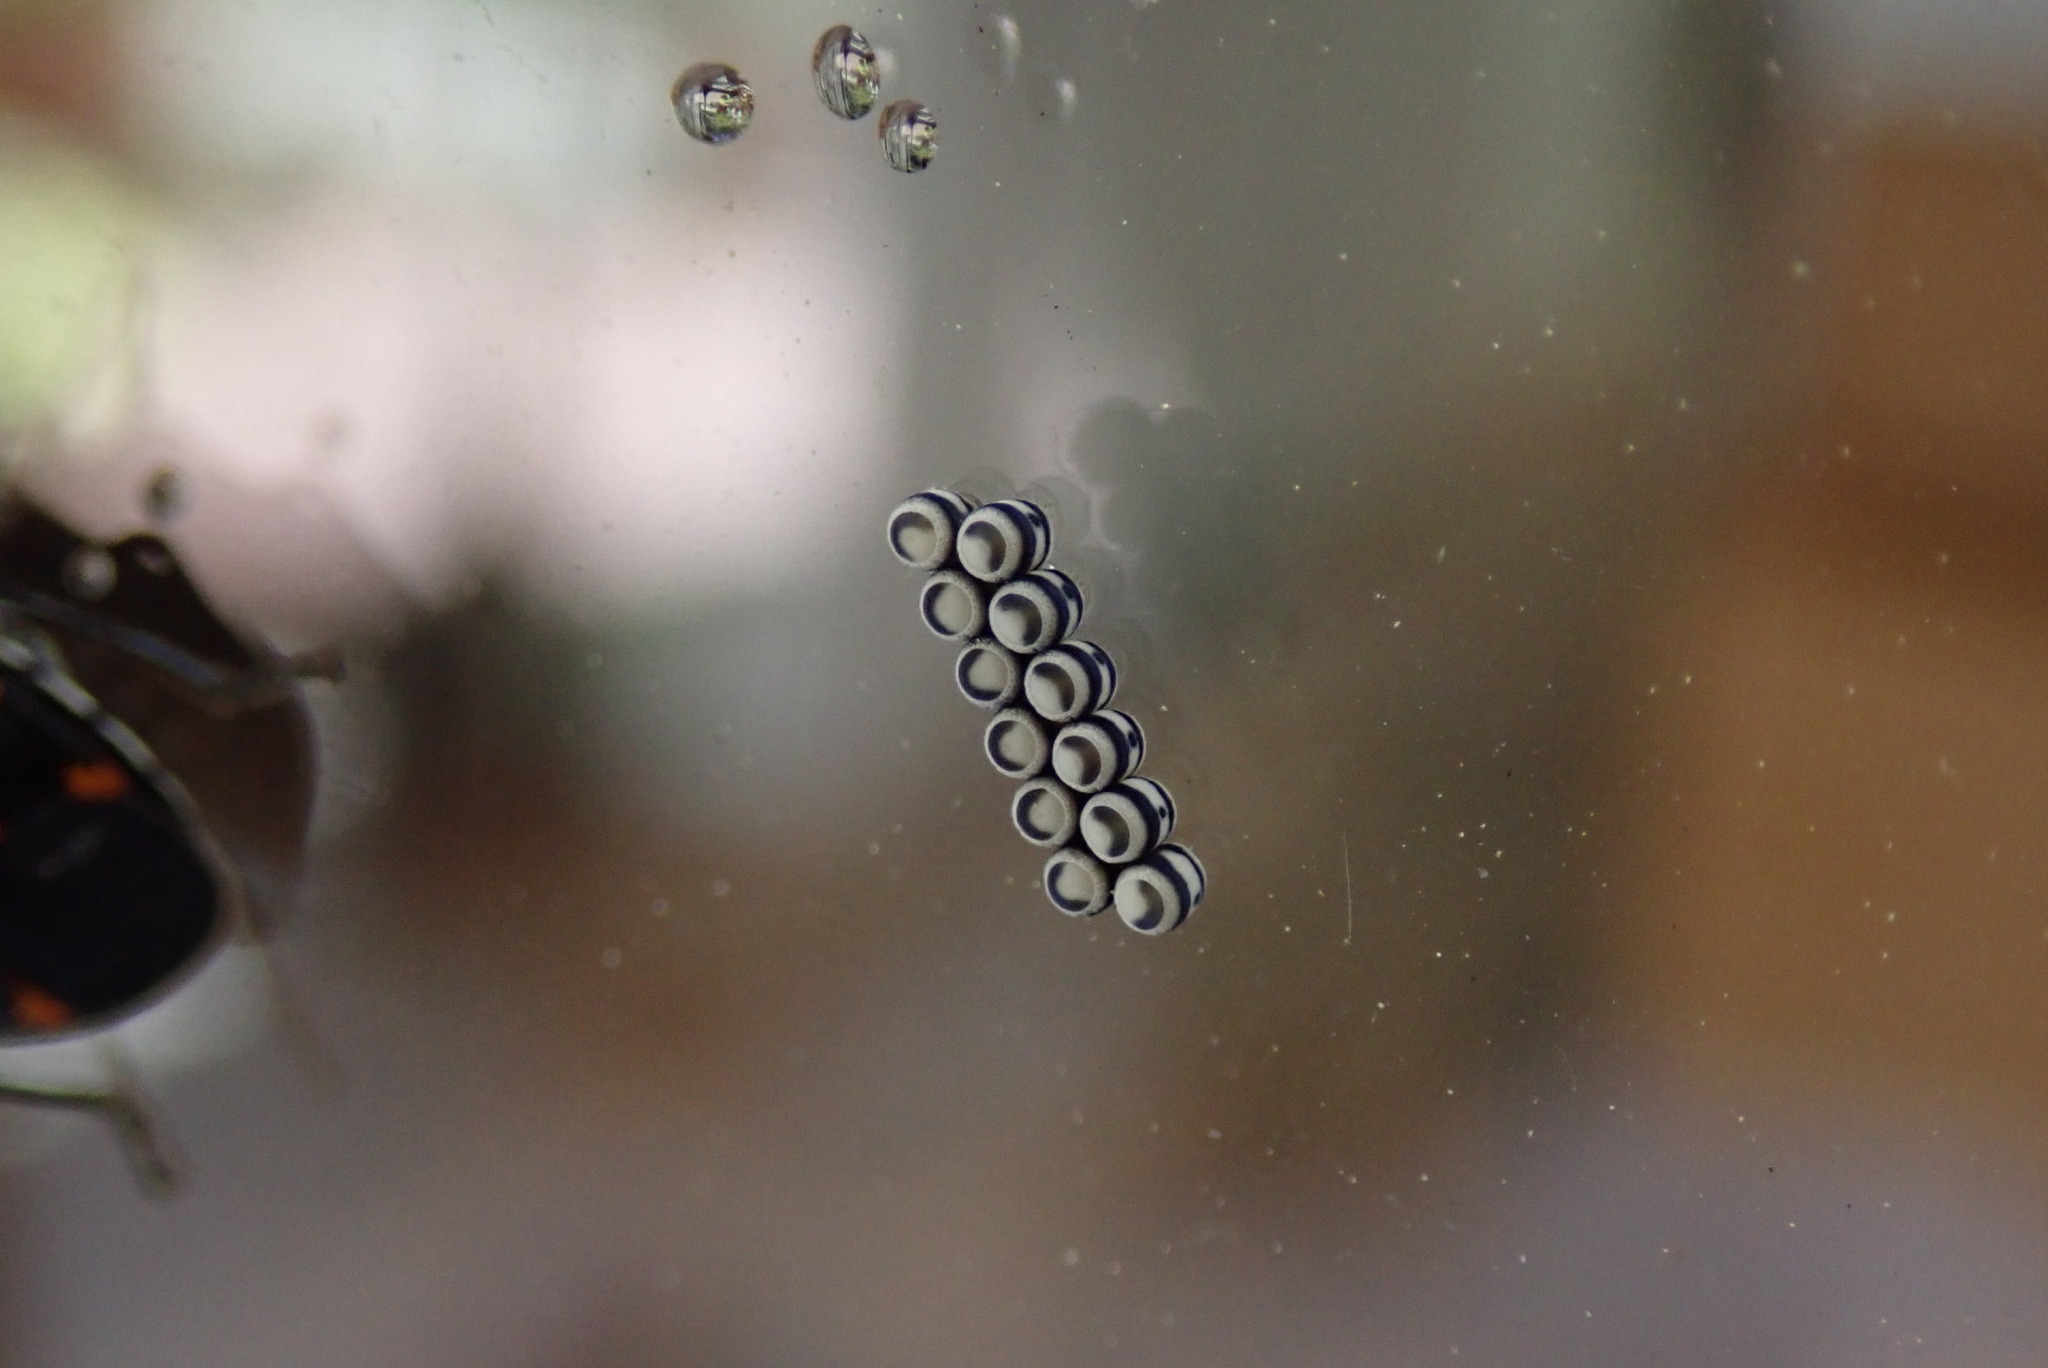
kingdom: Animalia
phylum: Arthropoda
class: Insecta
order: Hemiptera
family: Pentatomidae
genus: Murgantia
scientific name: Murgantia histrionica
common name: Harlequin bug
